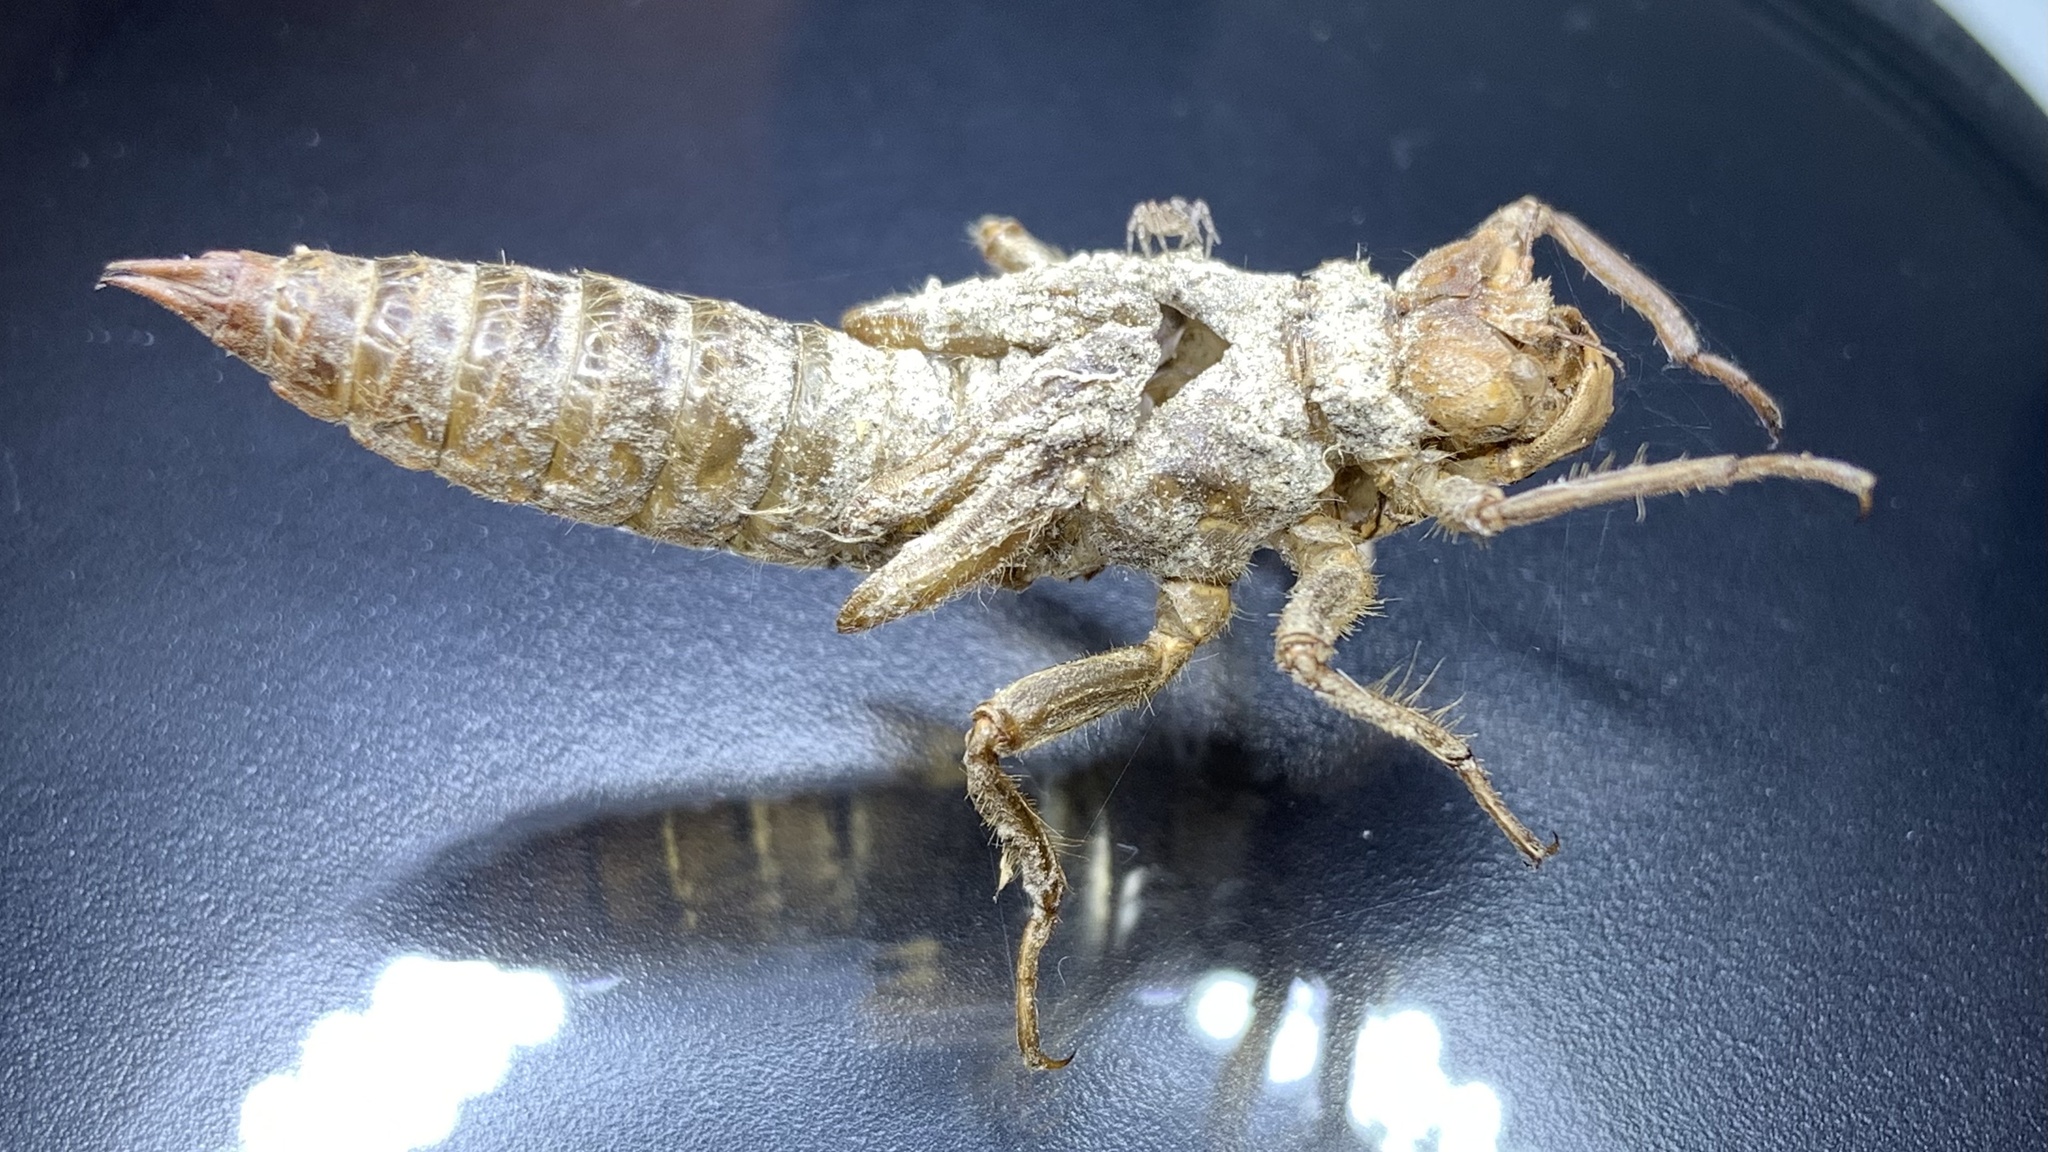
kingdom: Animalia
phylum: Arthropoda
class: Insecta
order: Odonata
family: Cordulegastridae
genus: Cordulegaster
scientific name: Cordulegaster boltonii
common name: Golden-ringed dragonfly
